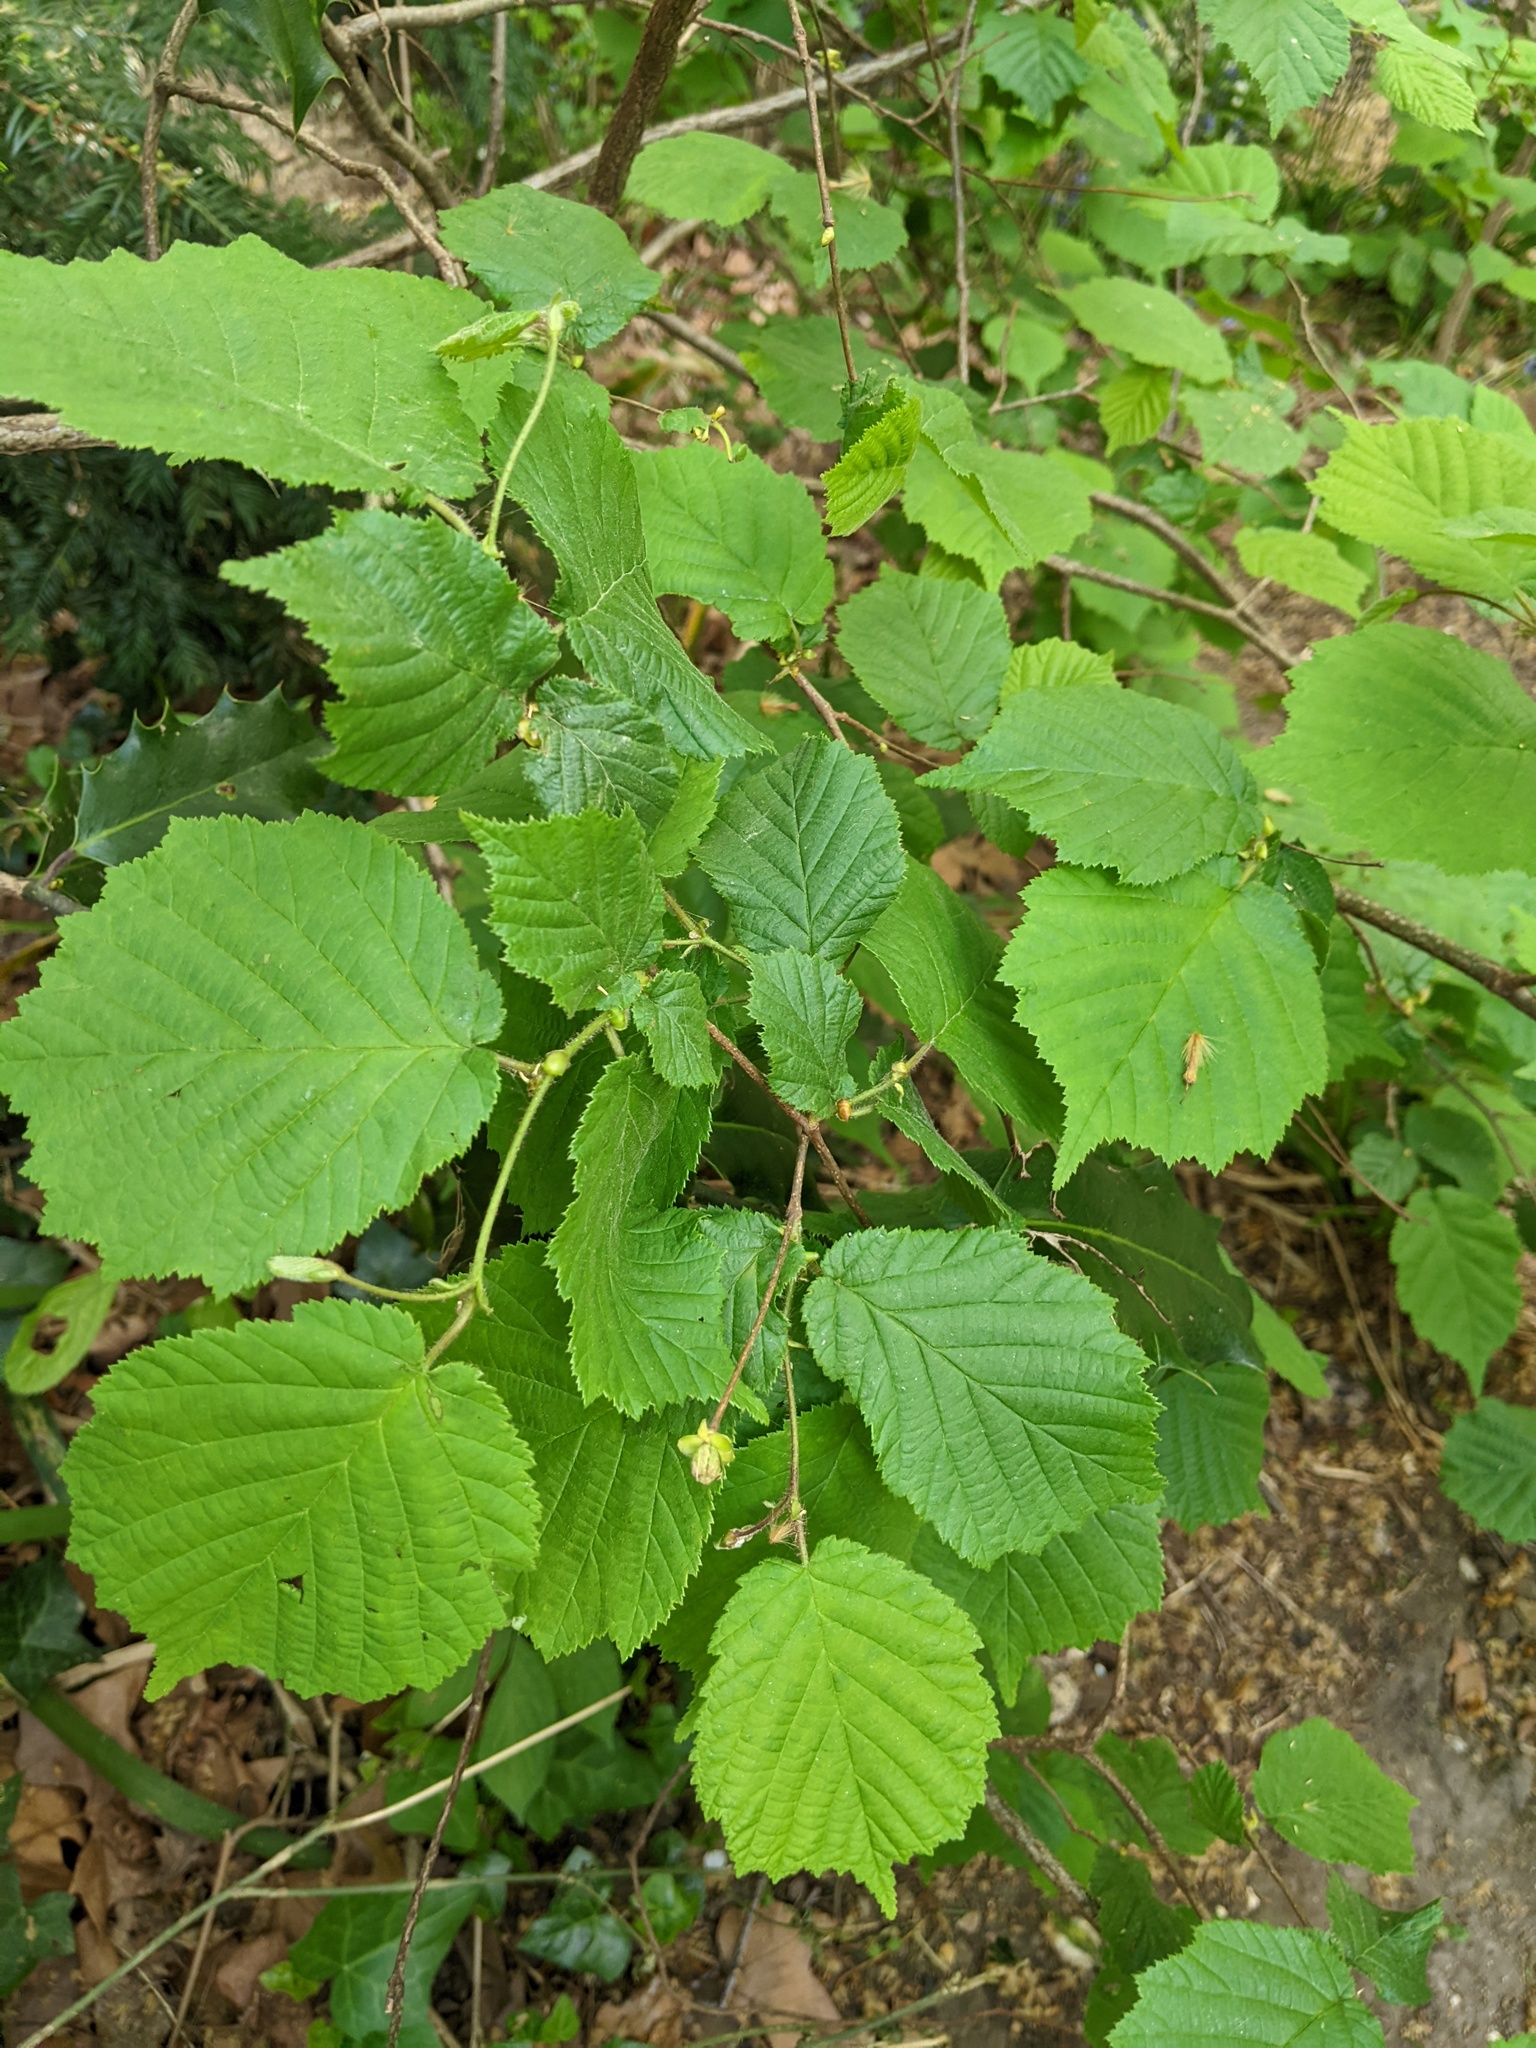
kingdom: Plantae
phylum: Tracheophyta
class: Magnoliopsida
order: Fagales
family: Betulaceae
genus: Corylus
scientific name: Corylus avellana
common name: European hazel
